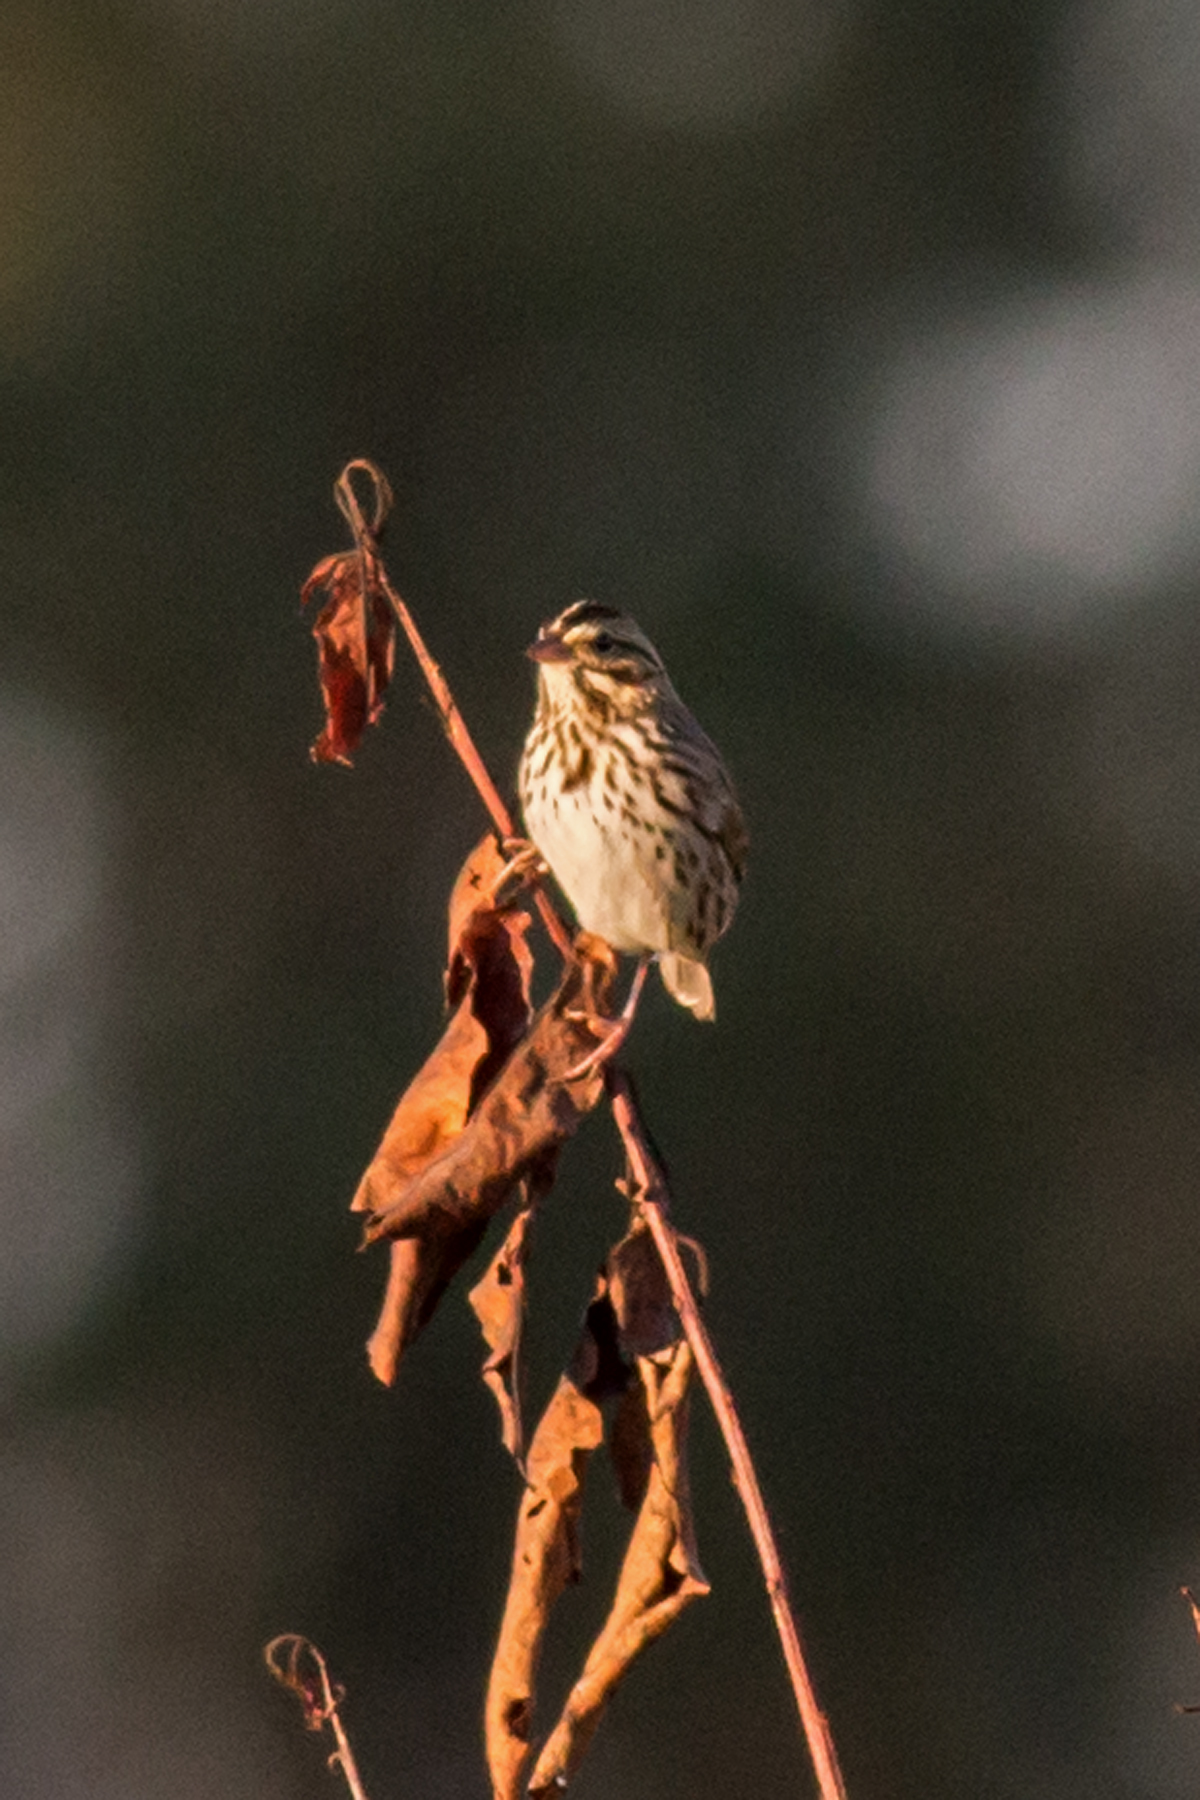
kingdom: Animalia
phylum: Chordata
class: Aves
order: Passeriformes
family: Passerellidae
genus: Passerculus
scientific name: Passerculus sandwichensis
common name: Savannah sparrow
